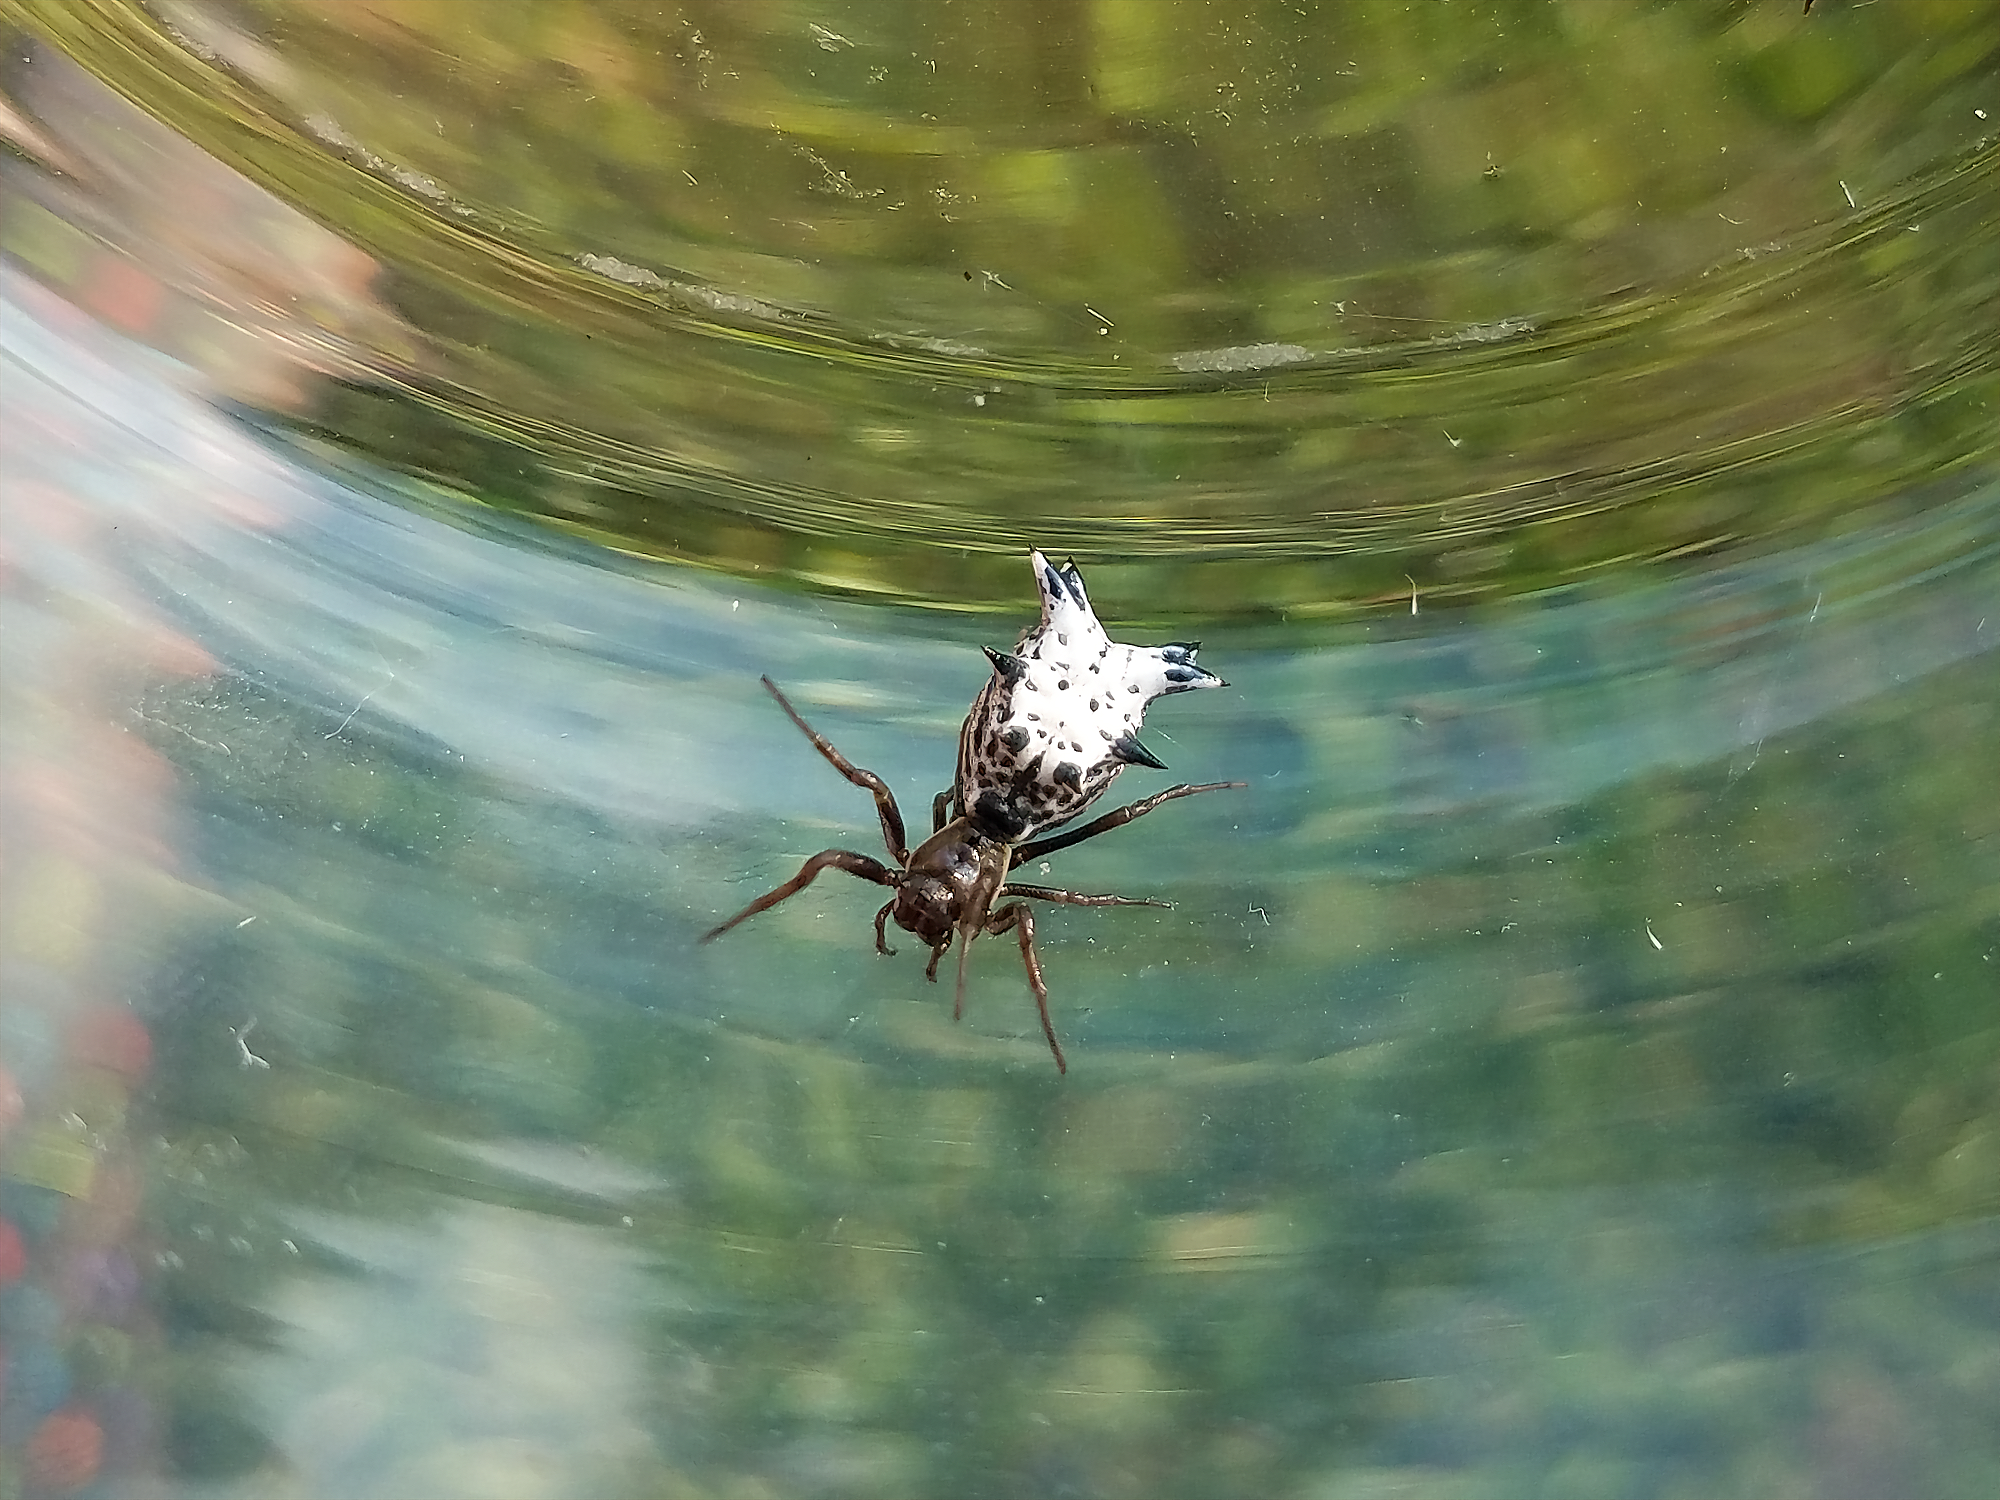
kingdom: Animalia
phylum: Arthropoda
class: Arachnida
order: Araneae
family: Araneidae
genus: Micrathena
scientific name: Micrathena gracilis
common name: Orb weavers
